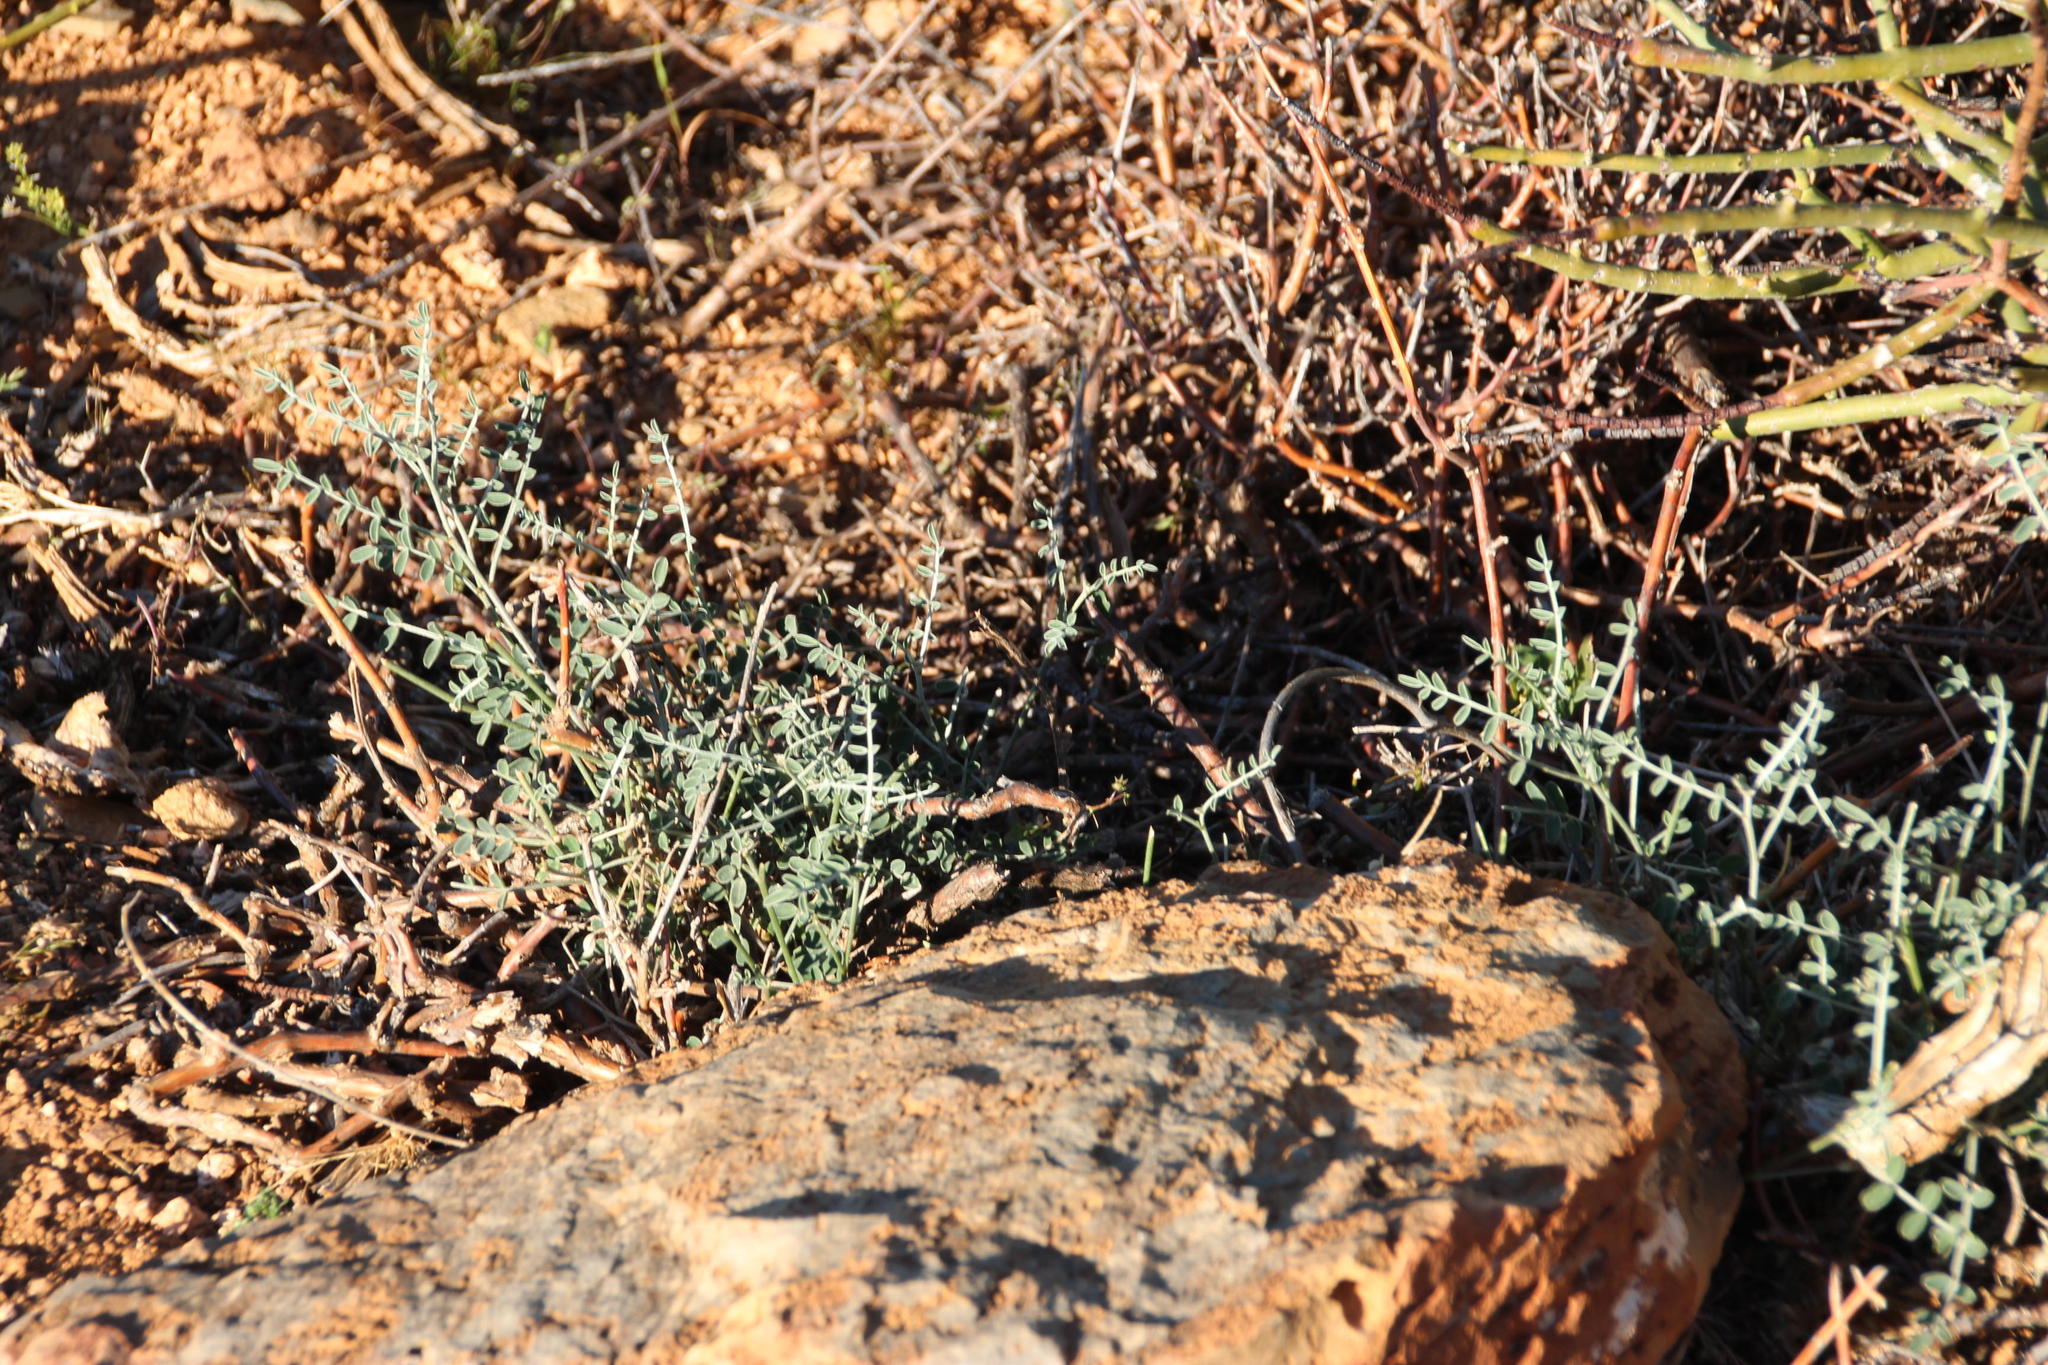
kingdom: Plantae
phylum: Tracheophyta
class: Magnoliopsida
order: Fabales
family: Fabaceae
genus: Lessertia
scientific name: Lessertia frutescens
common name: Balloon-pea
